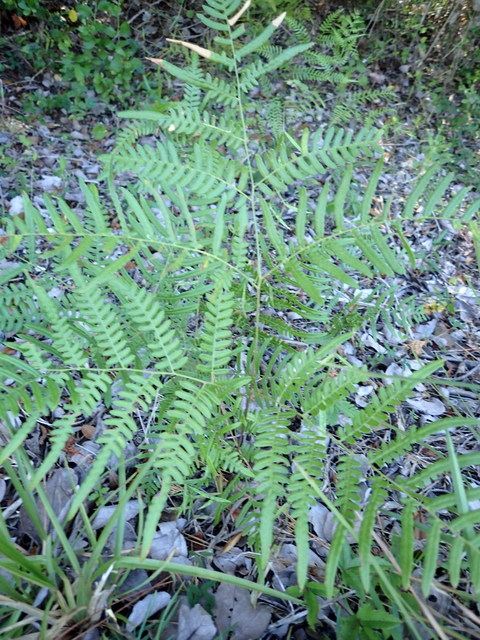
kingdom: Plantae
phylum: Tracheophyta
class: Polypodiopsida
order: Polypodiales
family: Dennstaedtiaceae
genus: Pteridium
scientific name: Pteridium
